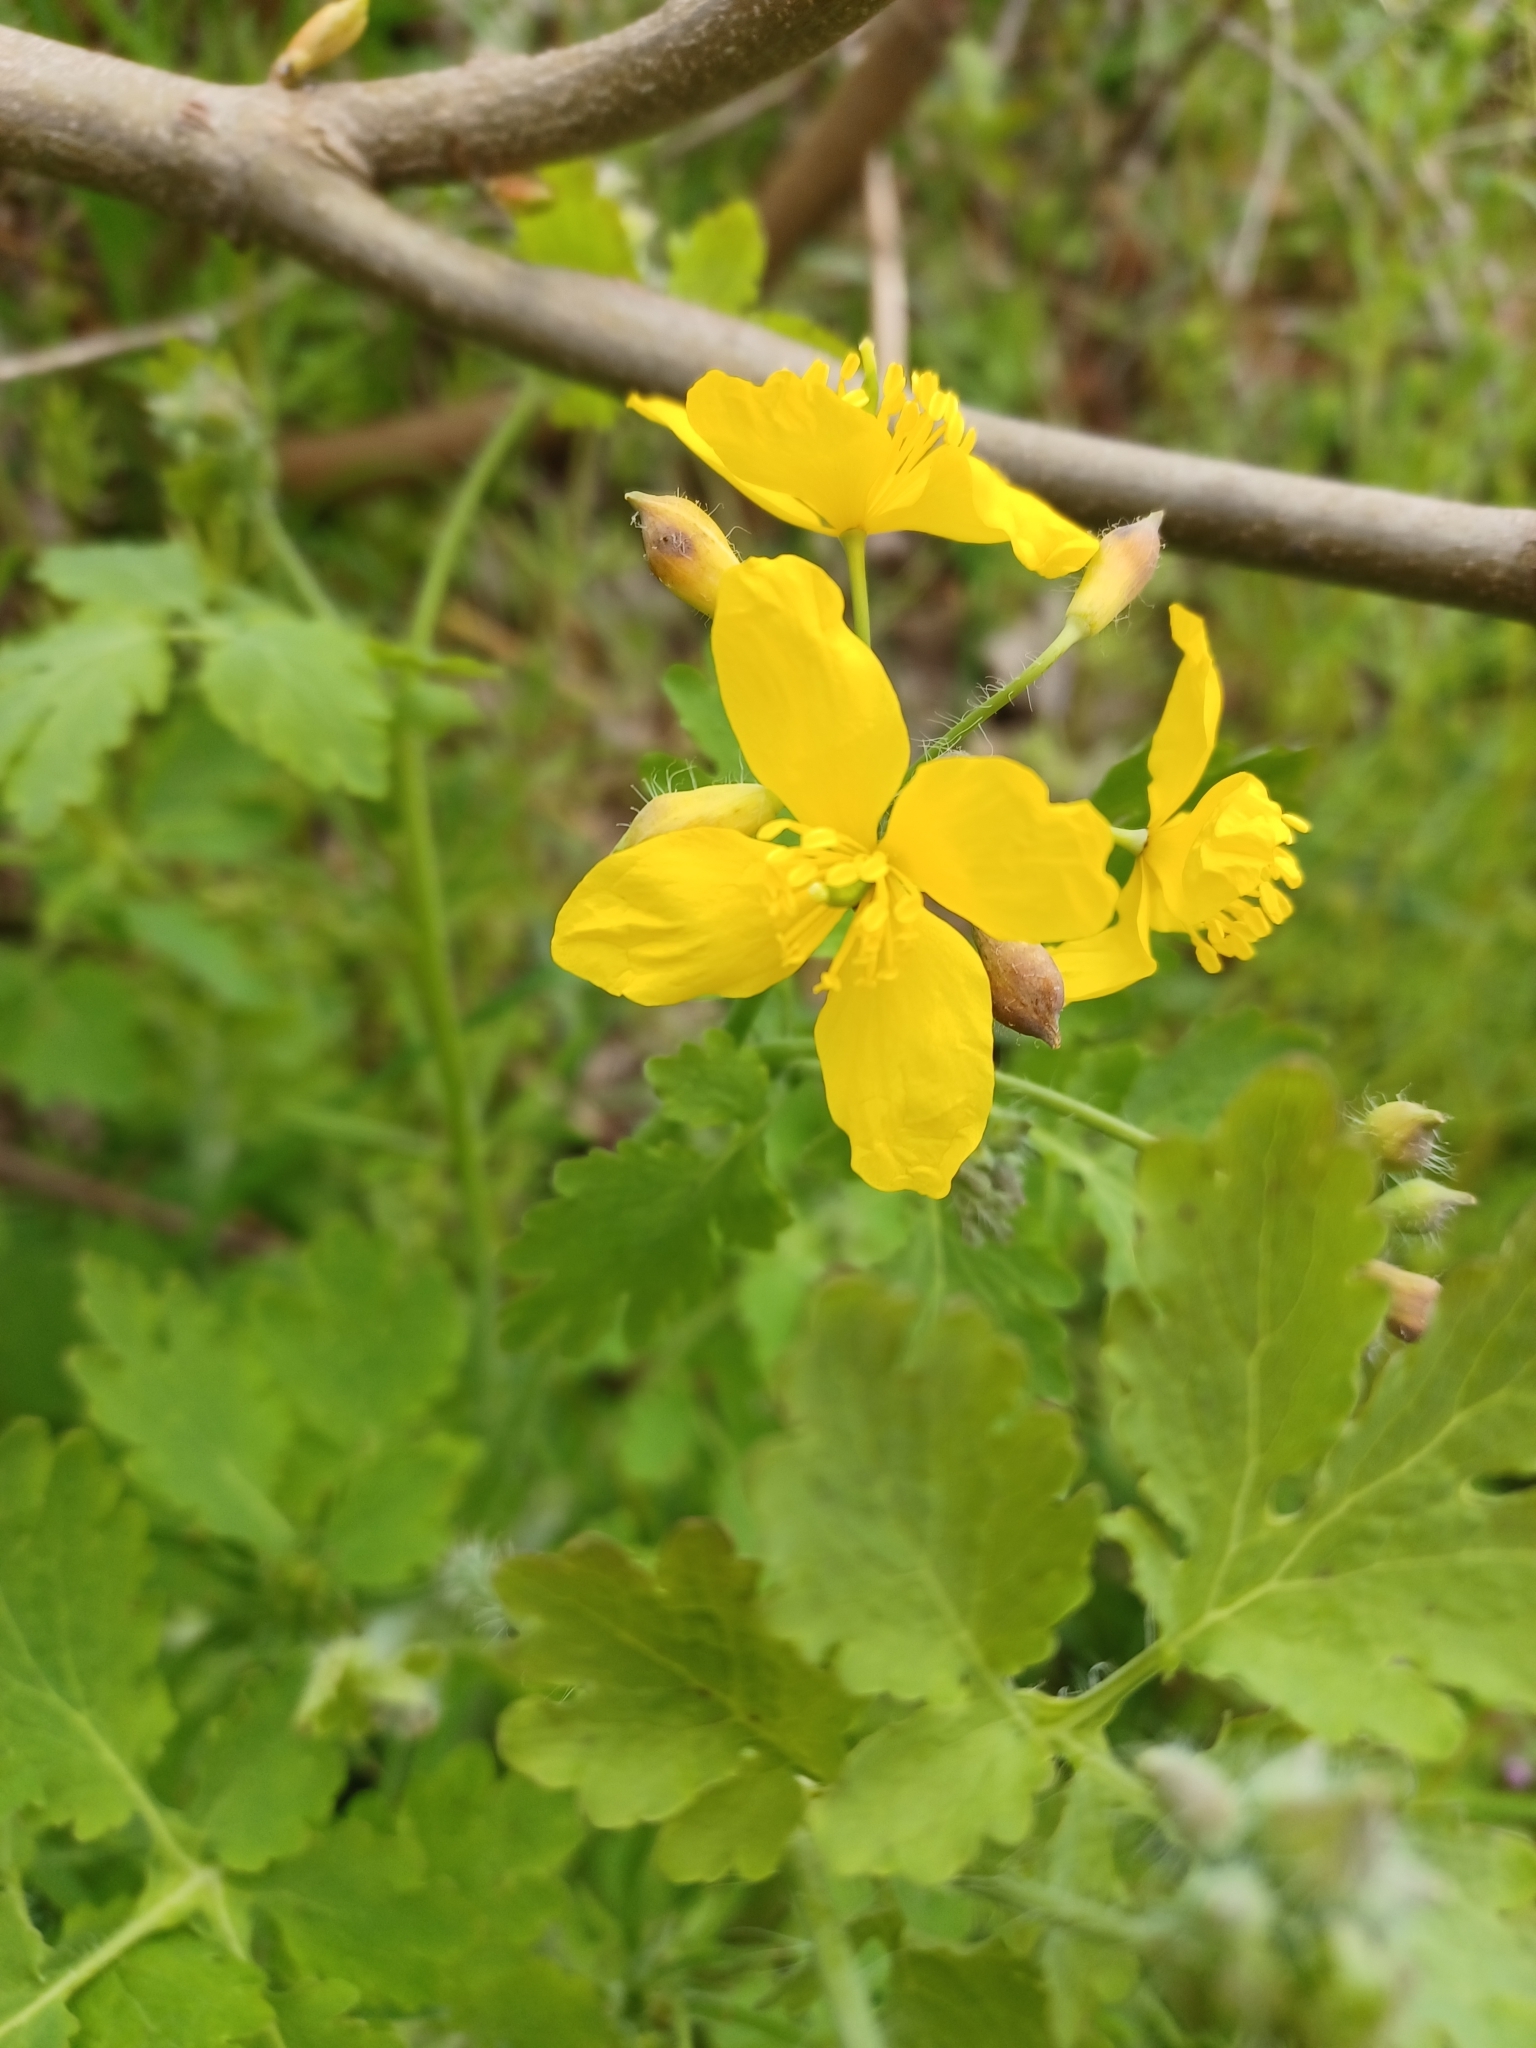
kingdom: Plantae
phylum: Tracheophyta
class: Magnoliopsida
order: Ranunculales
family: Papaveraceae
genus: Chelidonium
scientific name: Chelidonium majus
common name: Greater celandine
